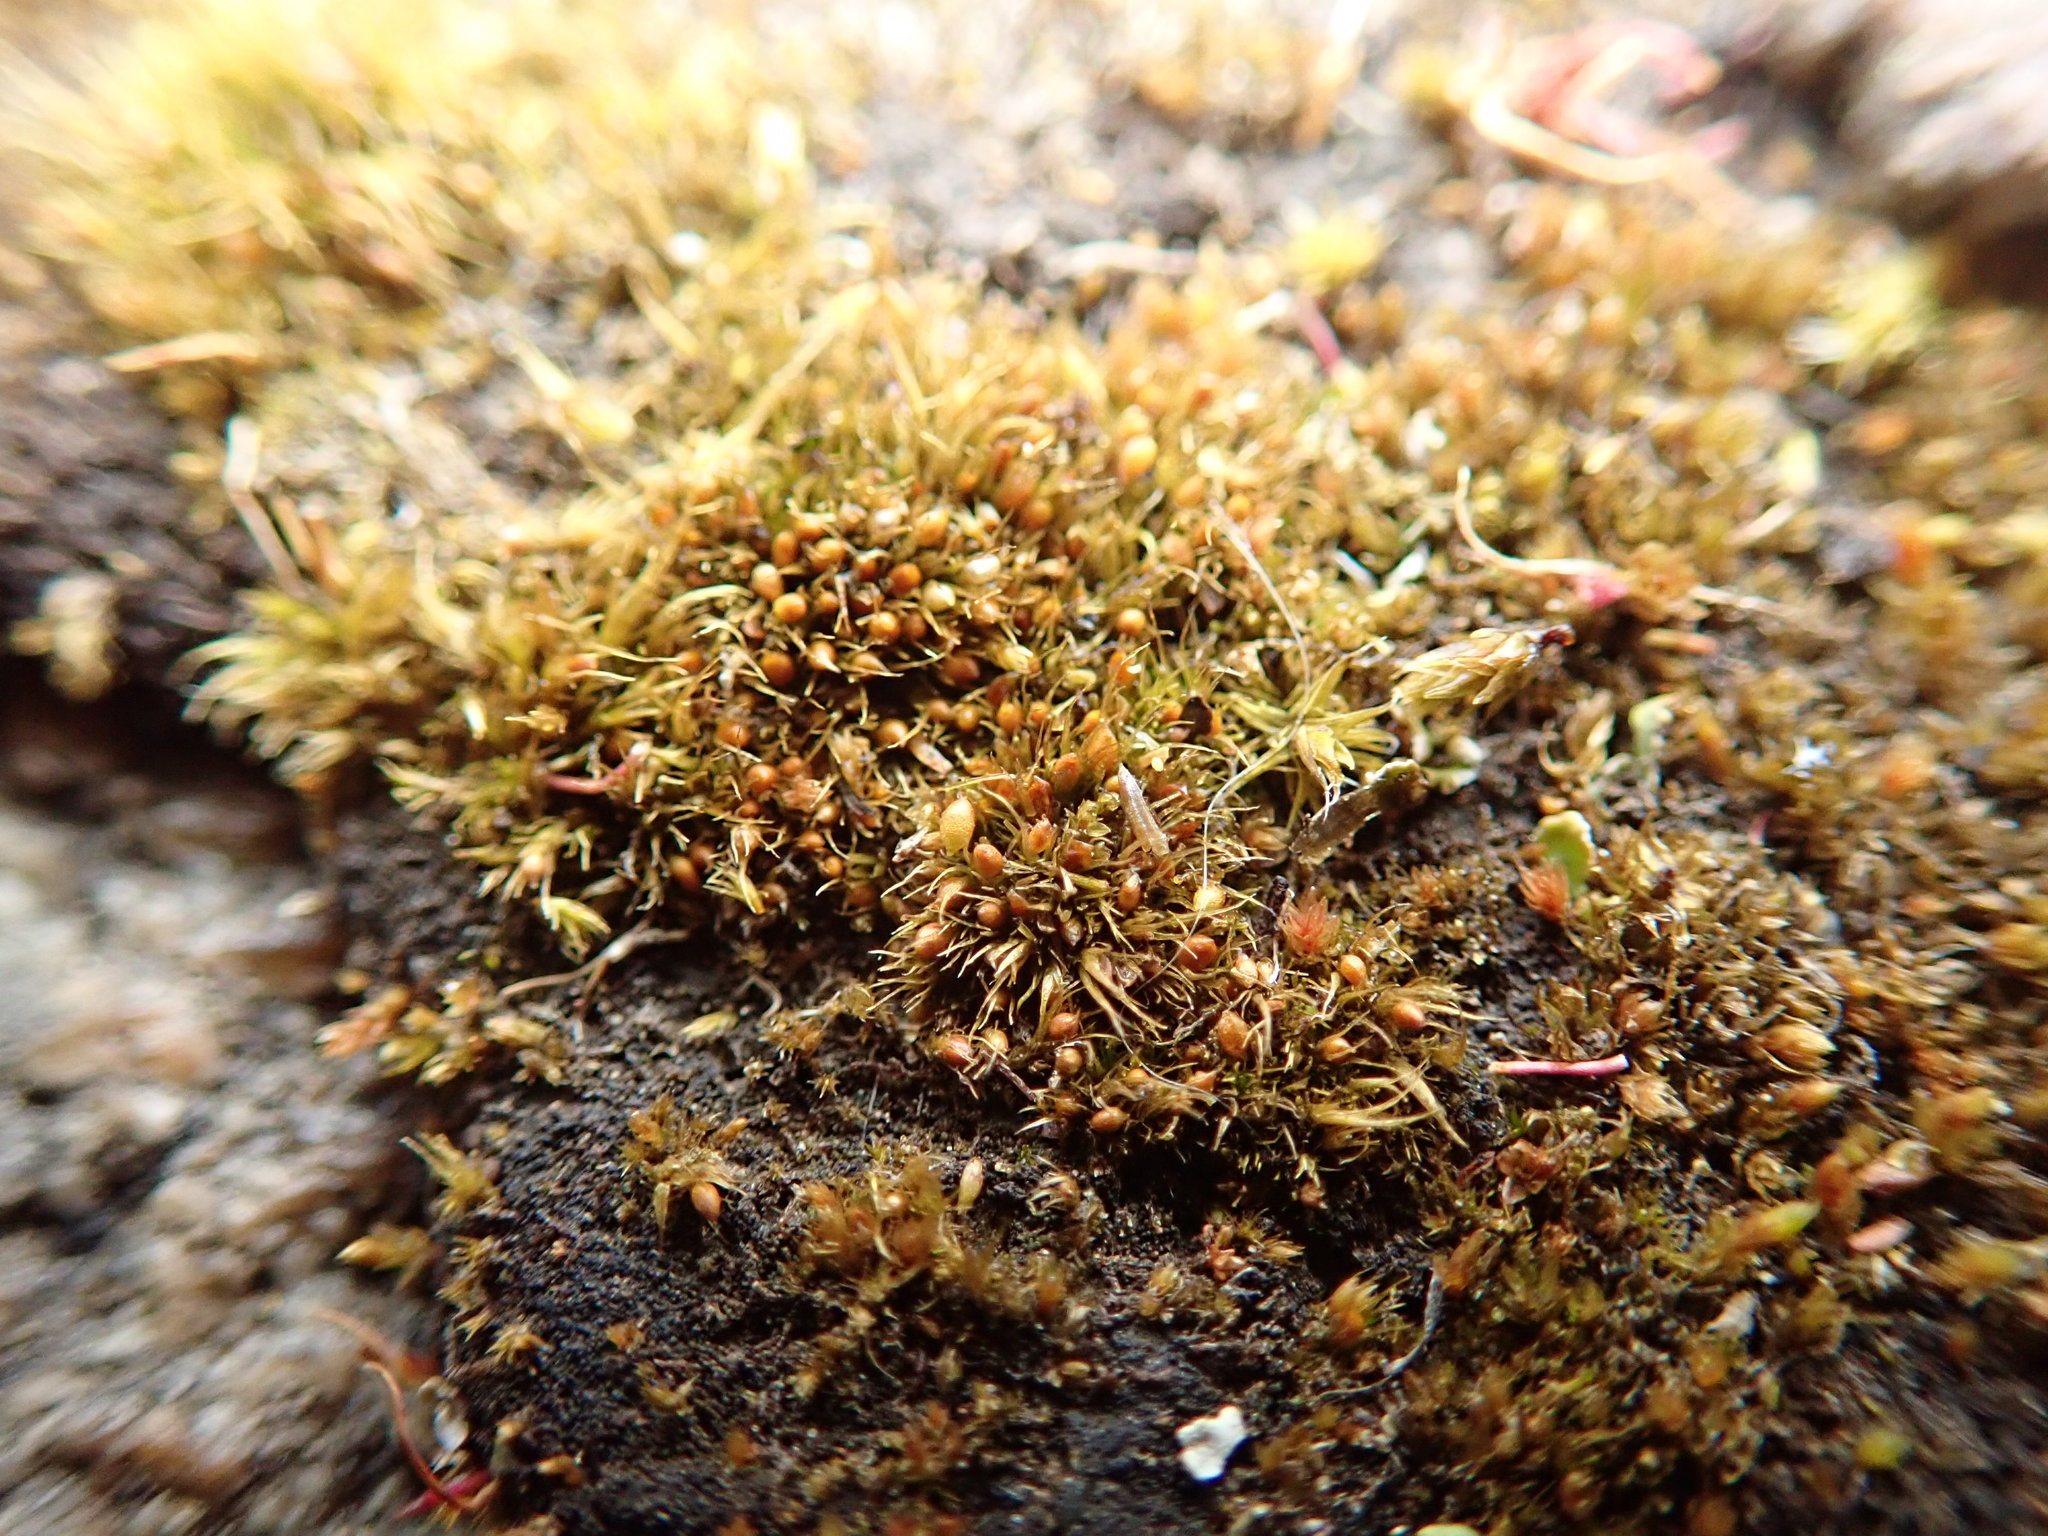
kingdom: Plantae
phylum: Bryophyta
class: Bryopsida
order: Dicranales
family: Ditrichaceae
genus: Pleuridium
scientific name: Pleuridium acuminatum
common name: Taper-leaved earth-moss
